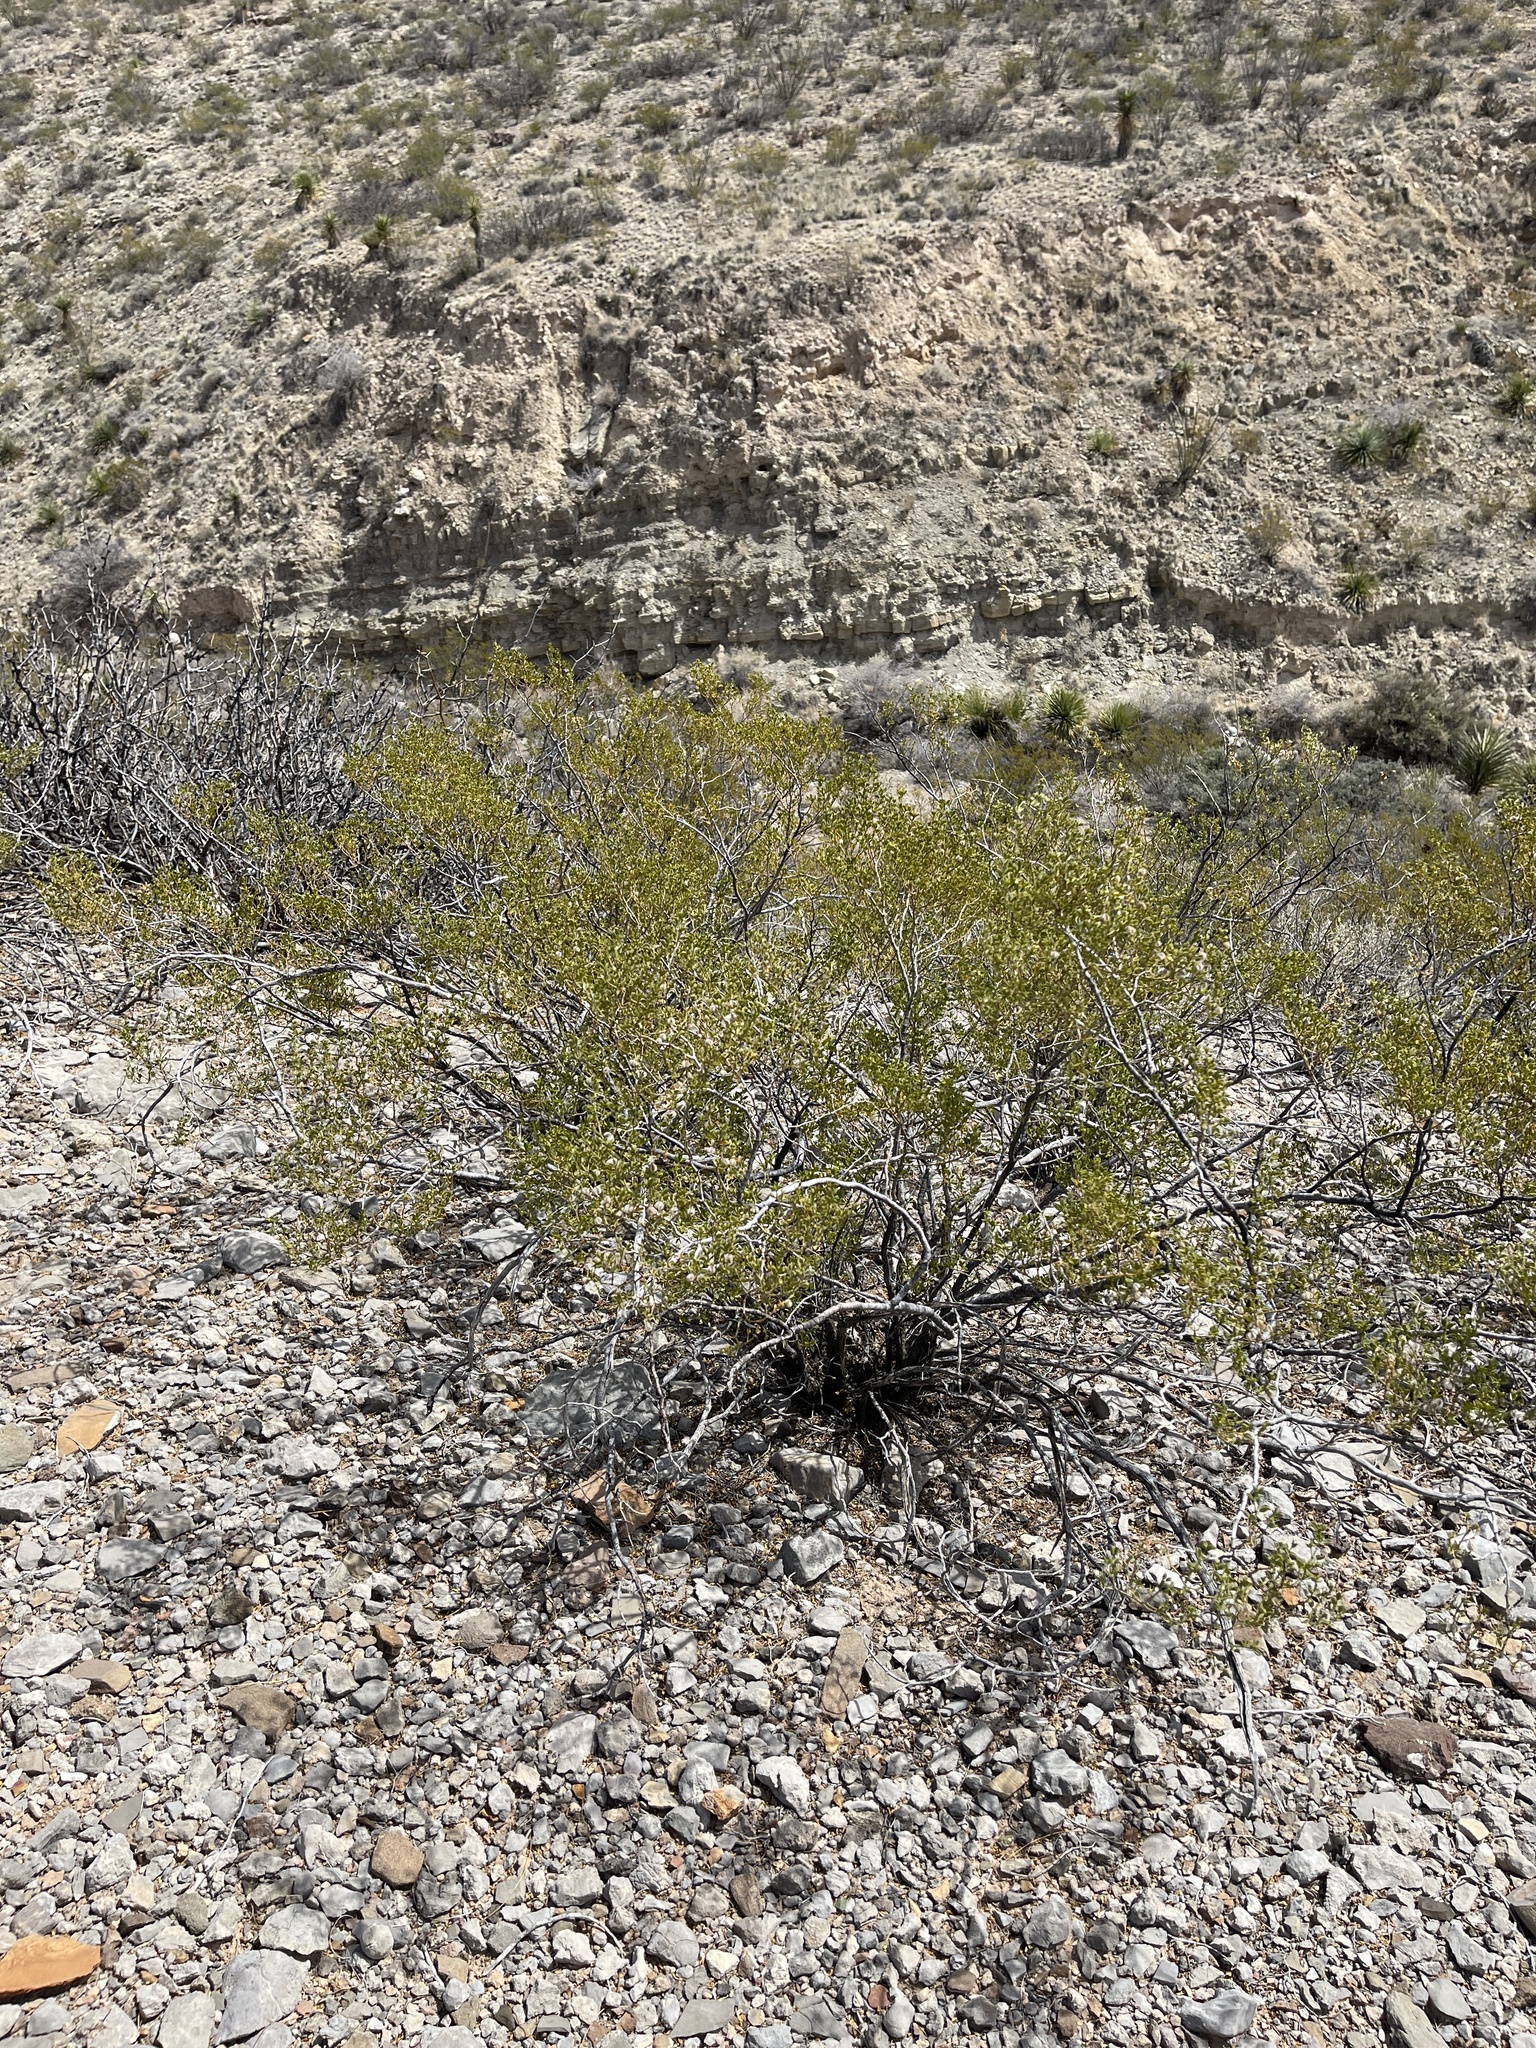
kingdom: Plantae
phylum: Tracheophyta
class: Magnoliopsida
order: Zygophyllales
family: Zygophyllaceae
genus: Larrea
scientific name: Larrea tridentata
